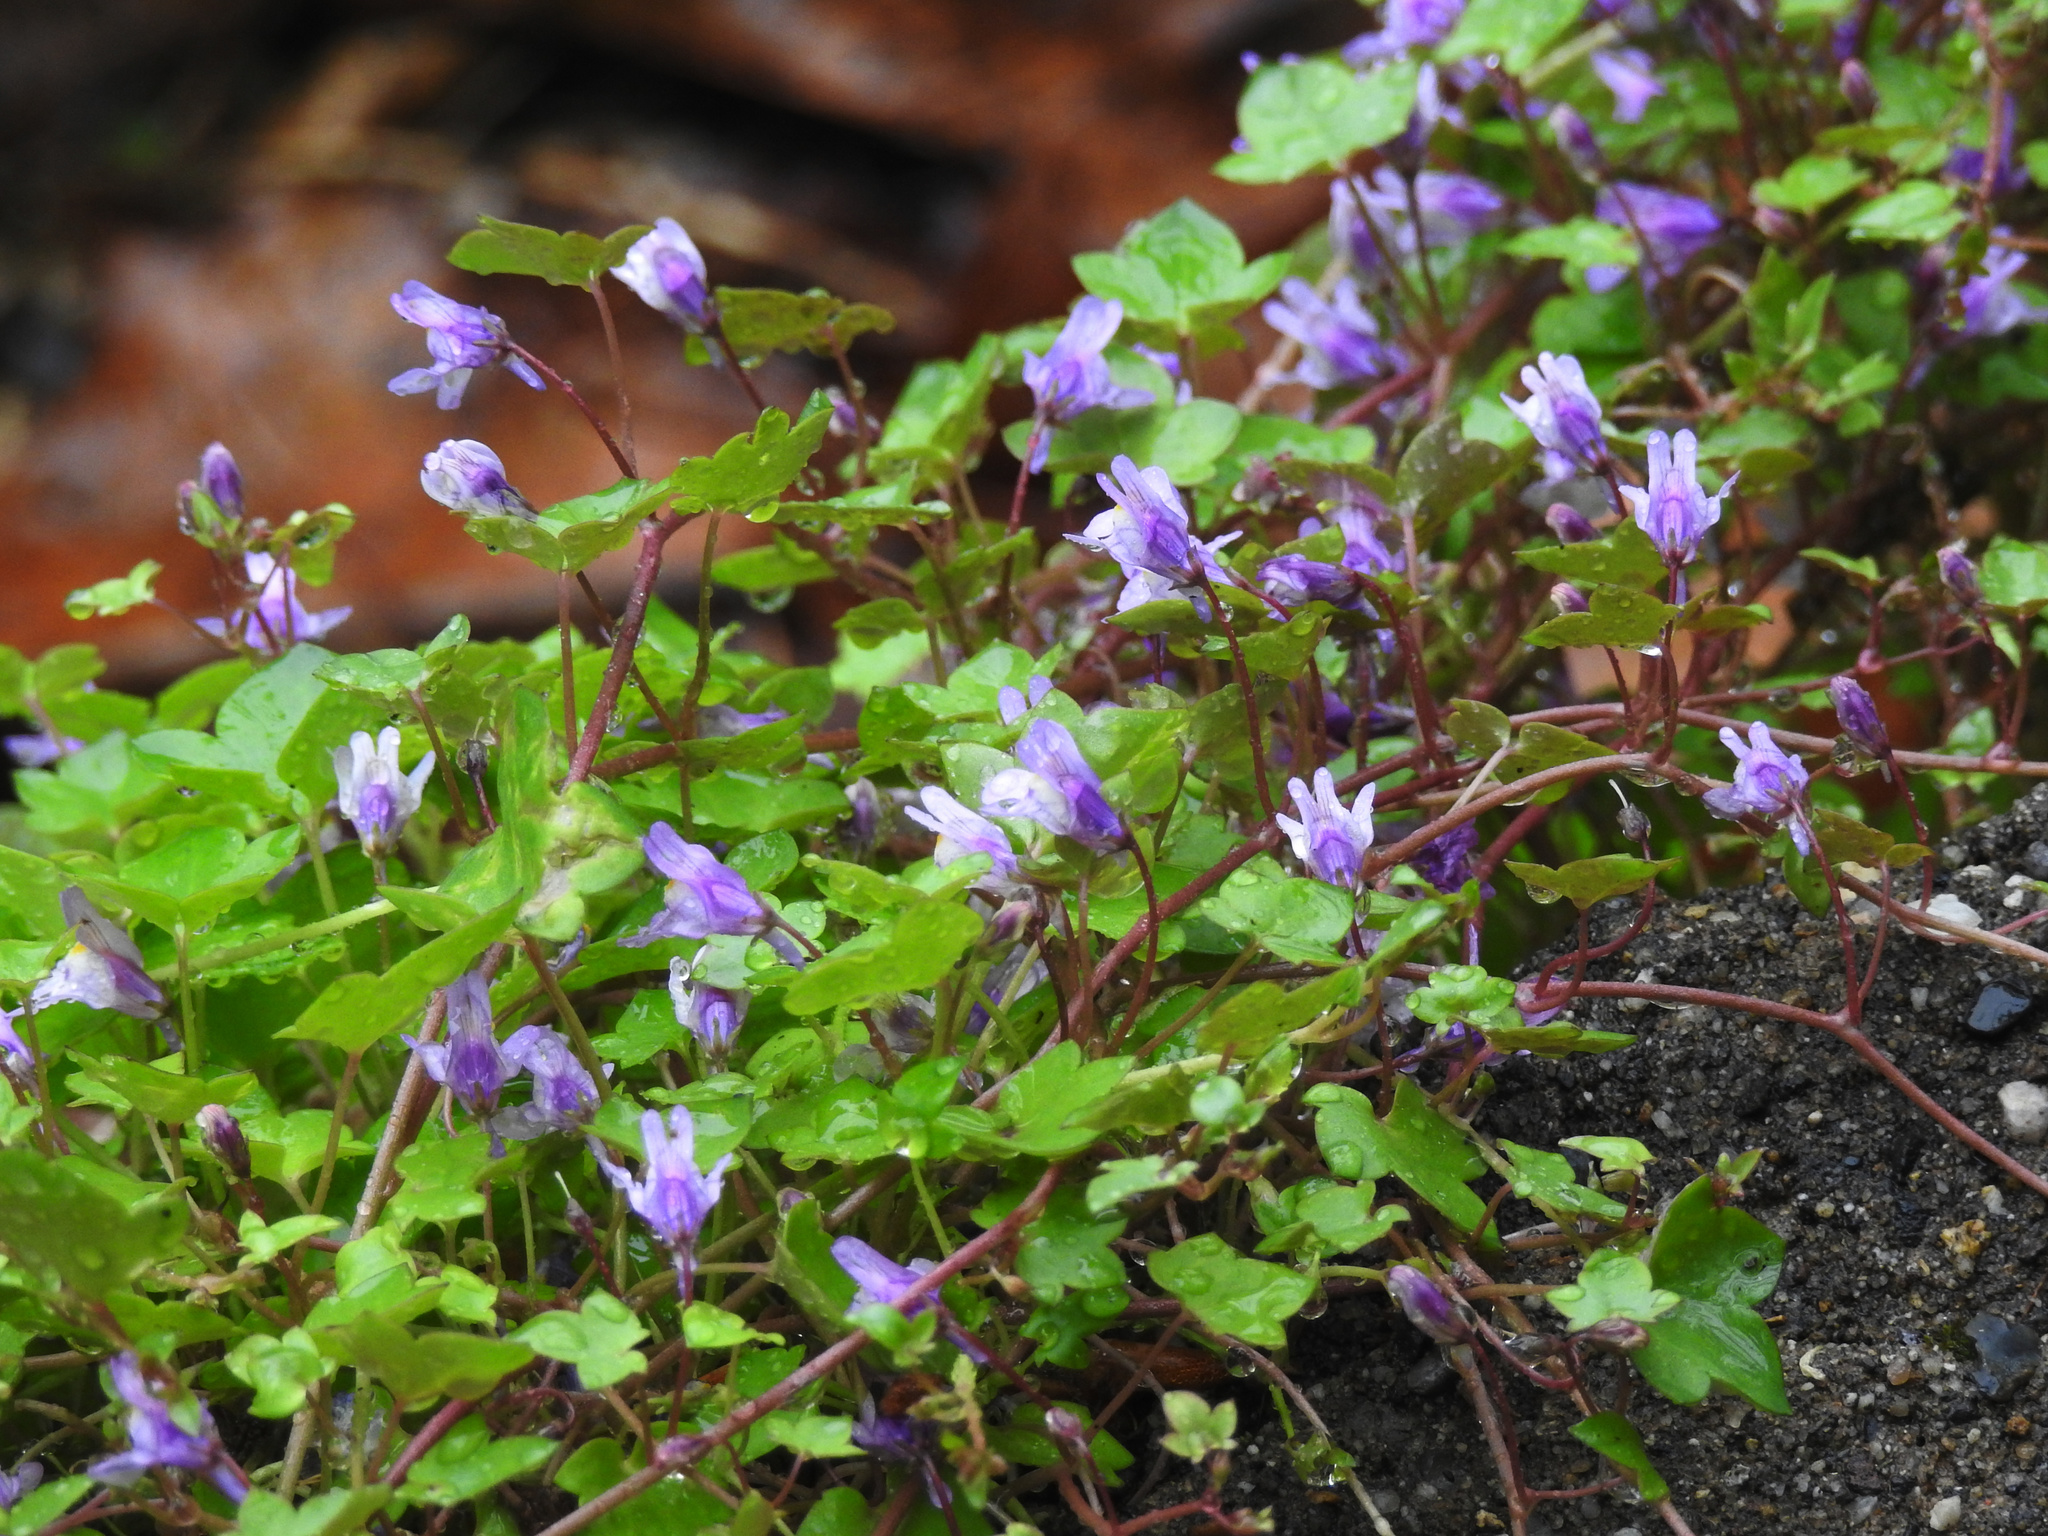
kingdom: Plantae
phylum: Tracheophyta
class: Magnoliopsida
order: Lamiales
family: Plantaginaceae
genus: Cymbalaria
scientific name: Cymbalaria muralis
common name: Ivy-leaved toadflax
